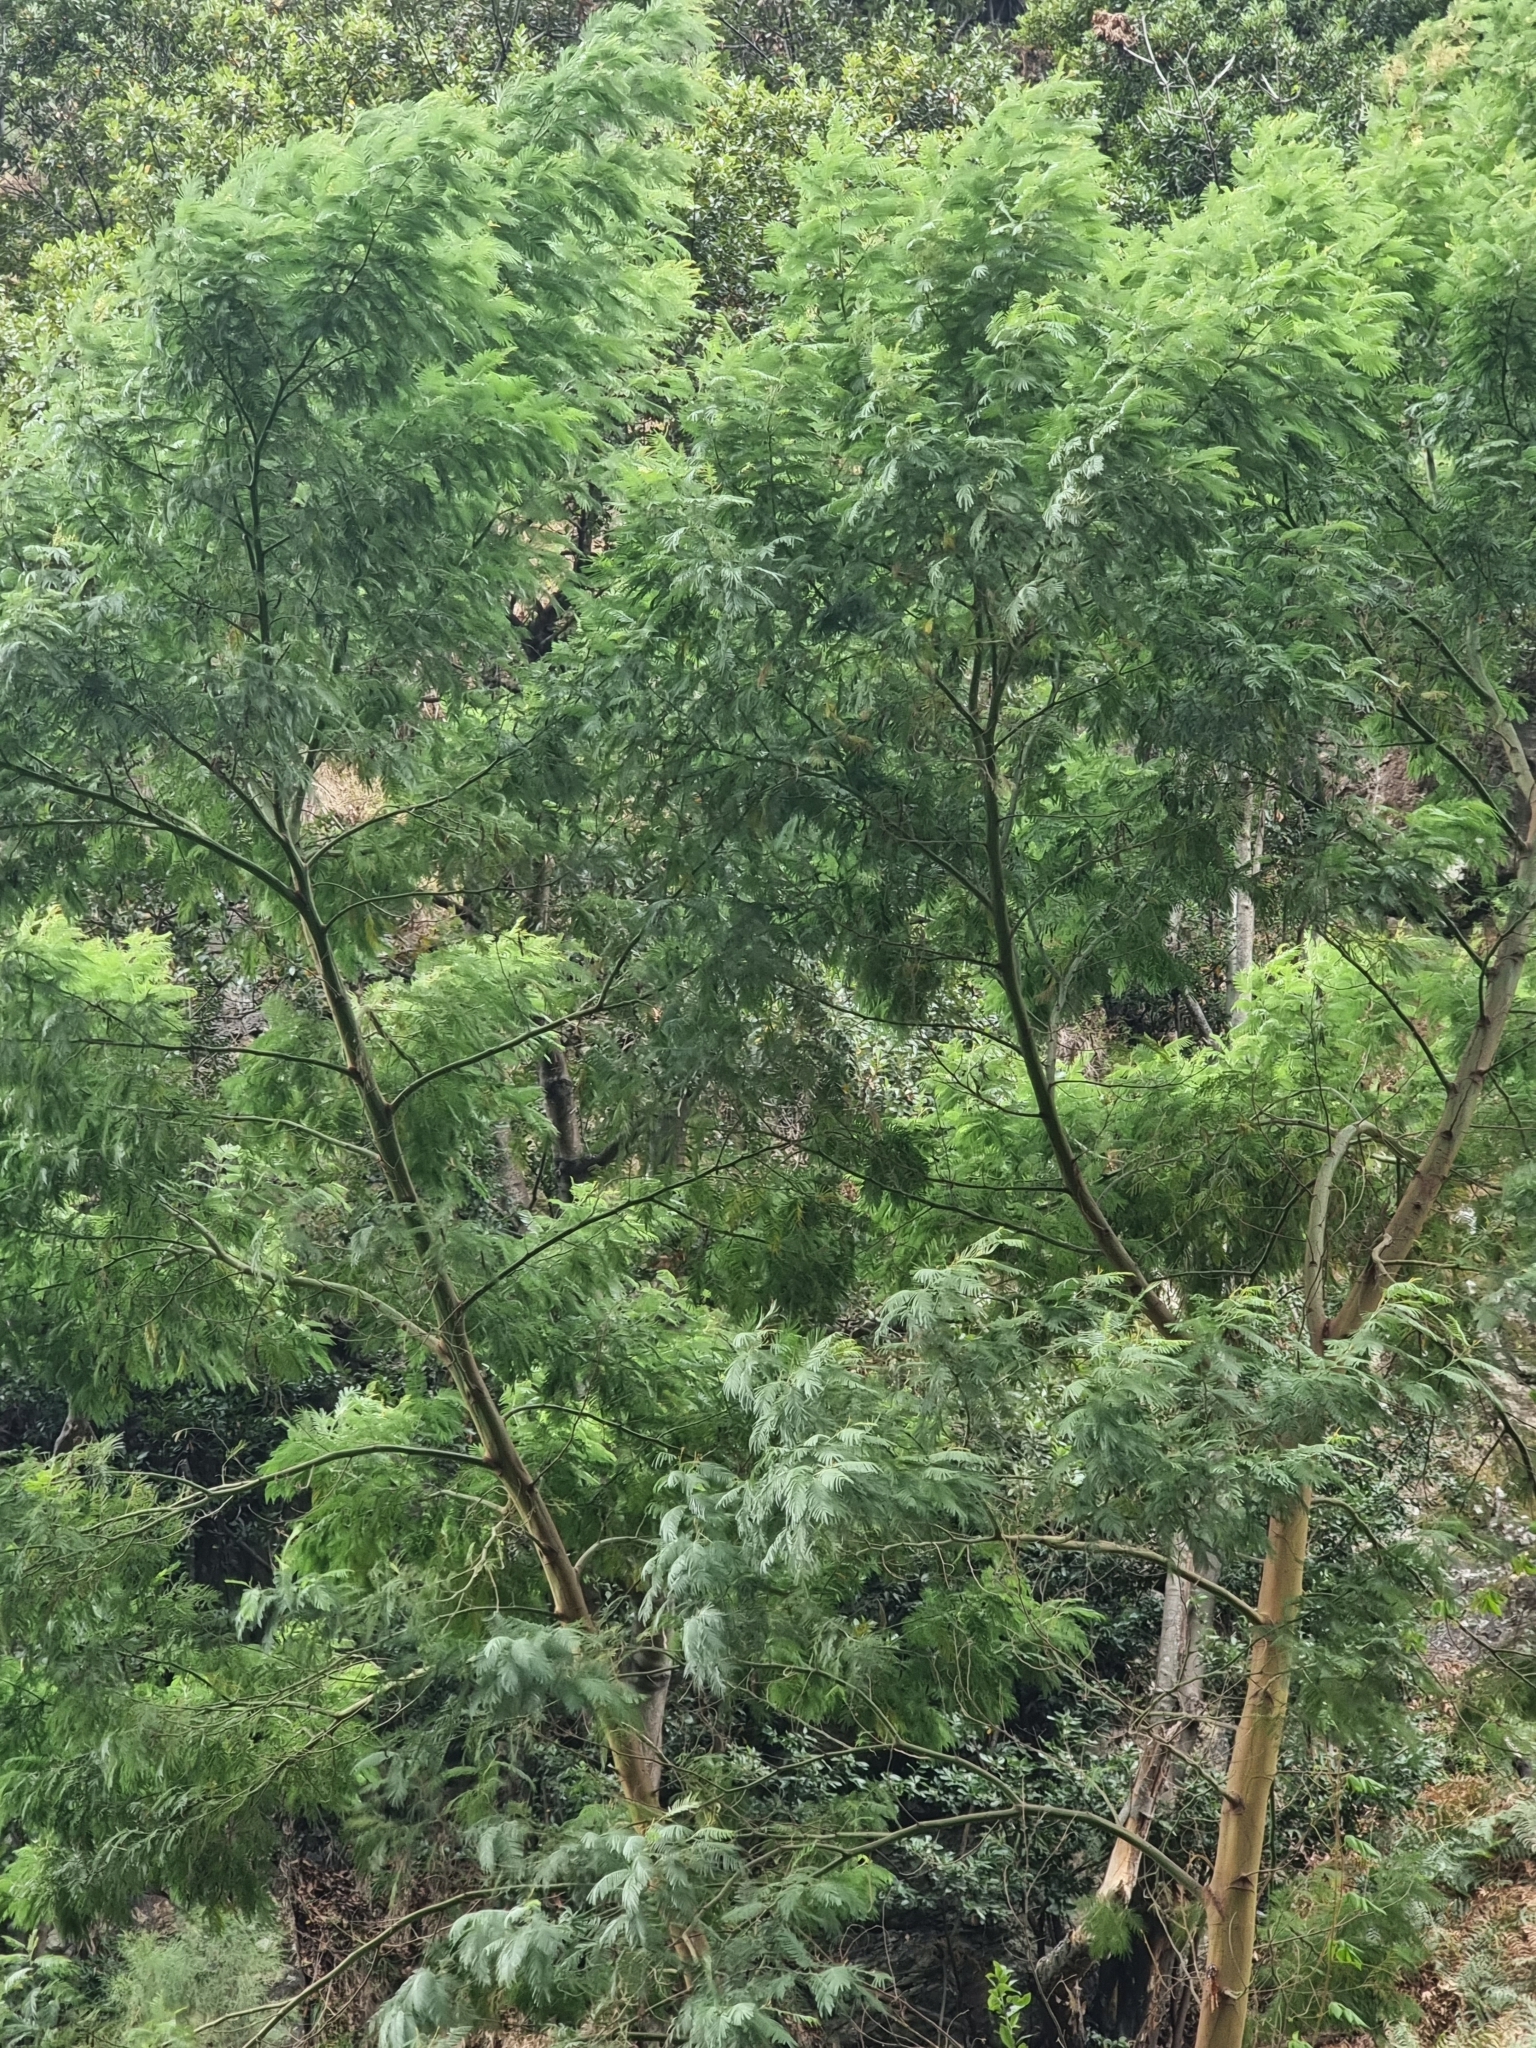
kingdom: Plantae
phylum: Tracheophyta
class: Magnoliopsida
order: Fabales
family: Fabaceae
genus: Acacia
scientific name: Acacia mearnsii
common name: Black wattle
